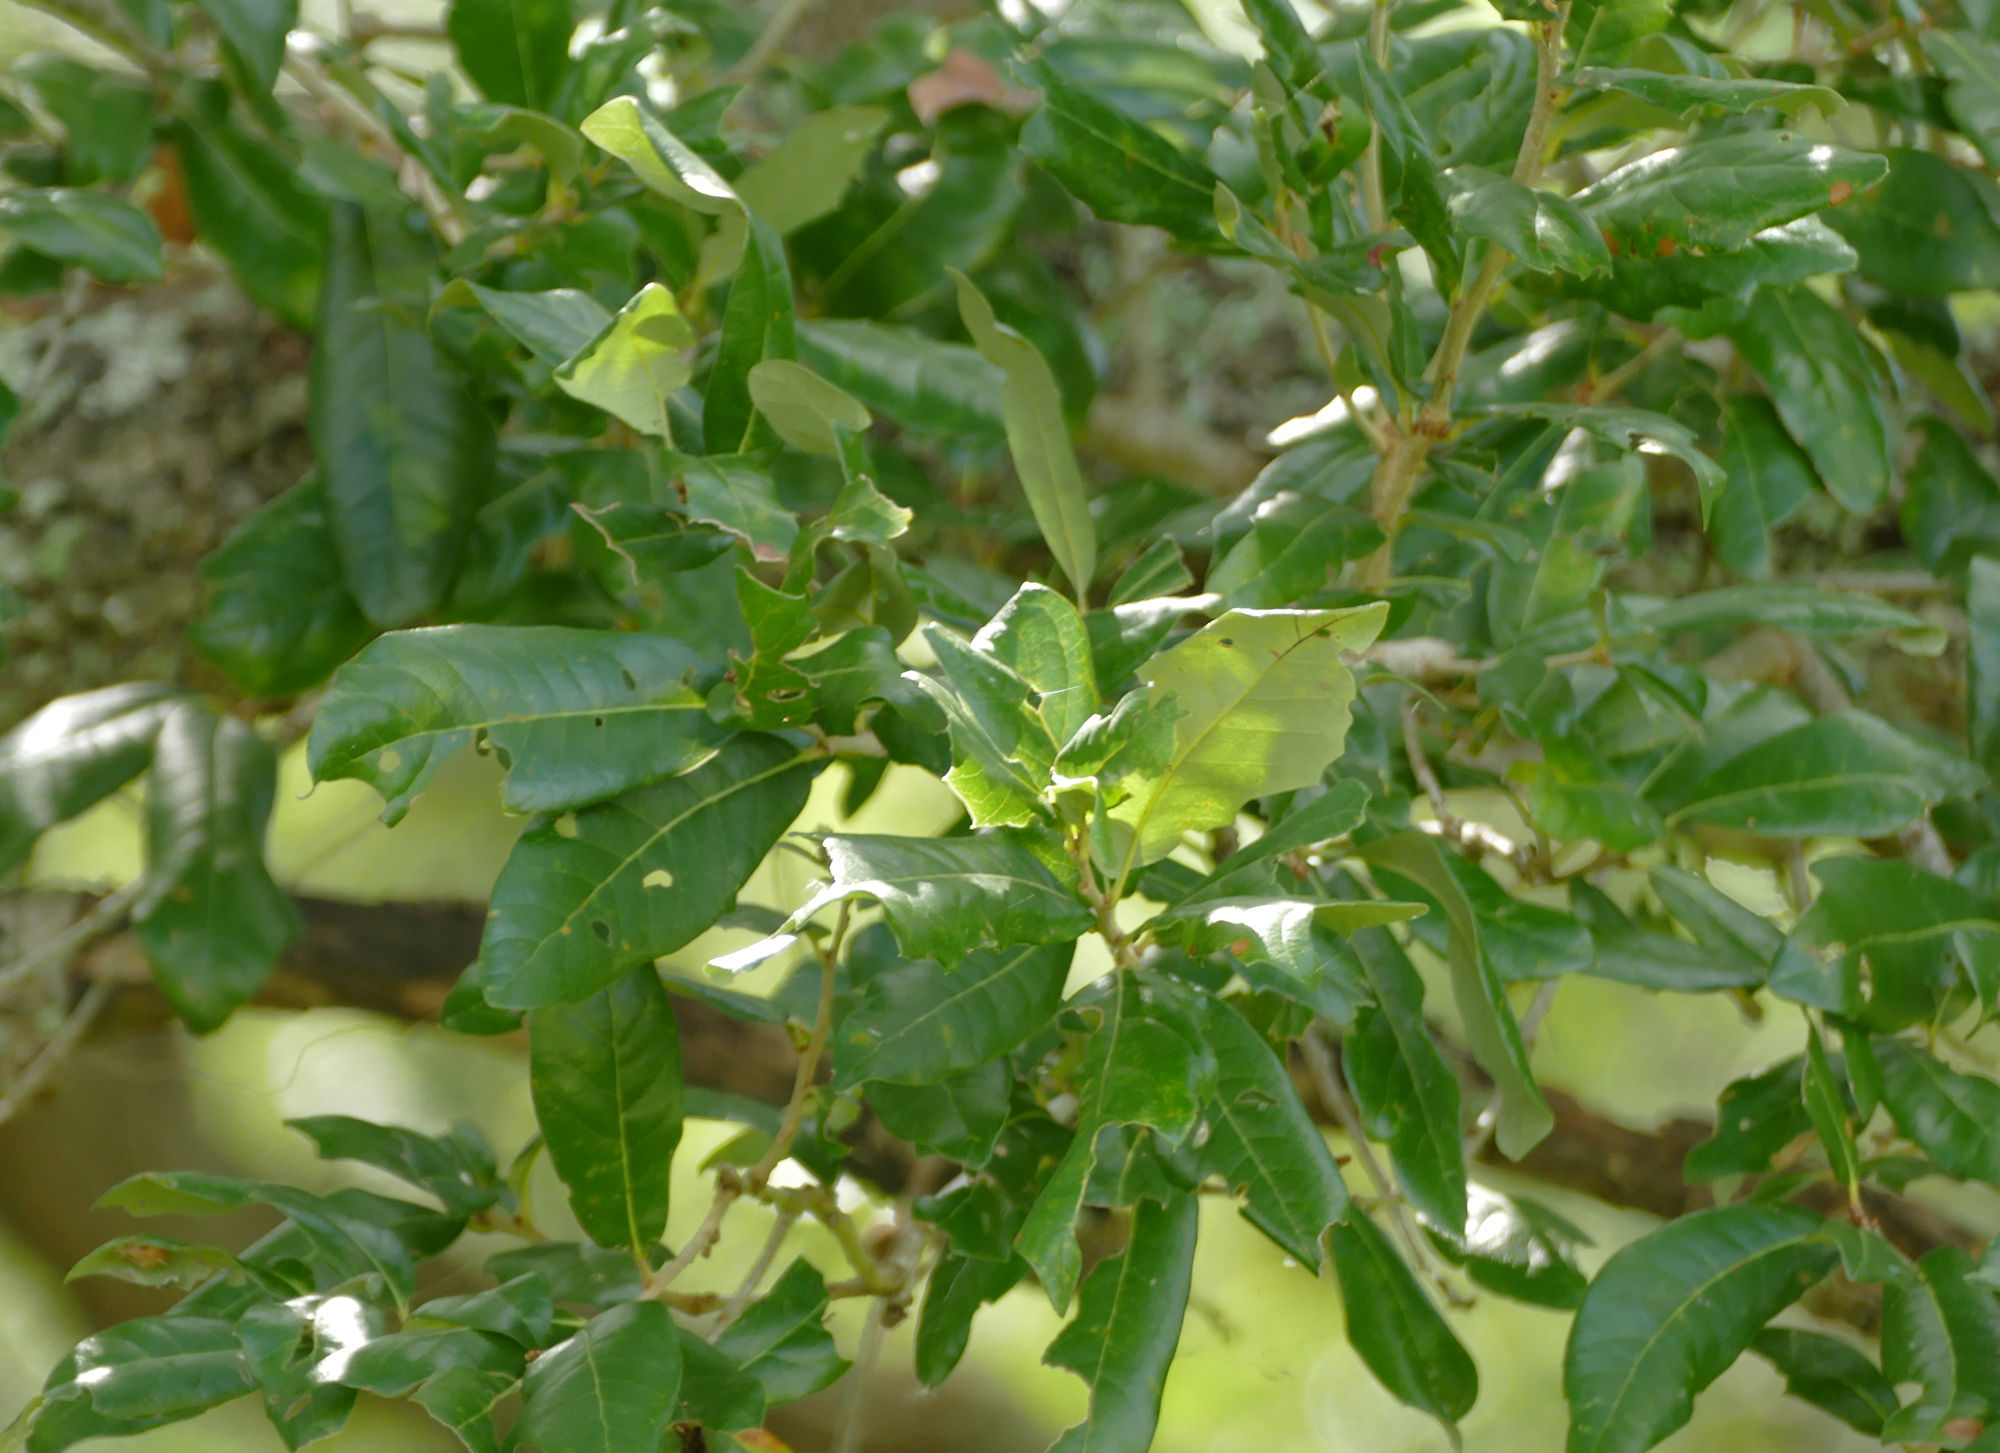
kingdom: Plantae
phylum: Tracheophyta
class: Magnoliopsida
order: Fagales
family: Fagaceae
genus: Quercus
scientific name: Quercus virginiana
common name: Southern live oak
